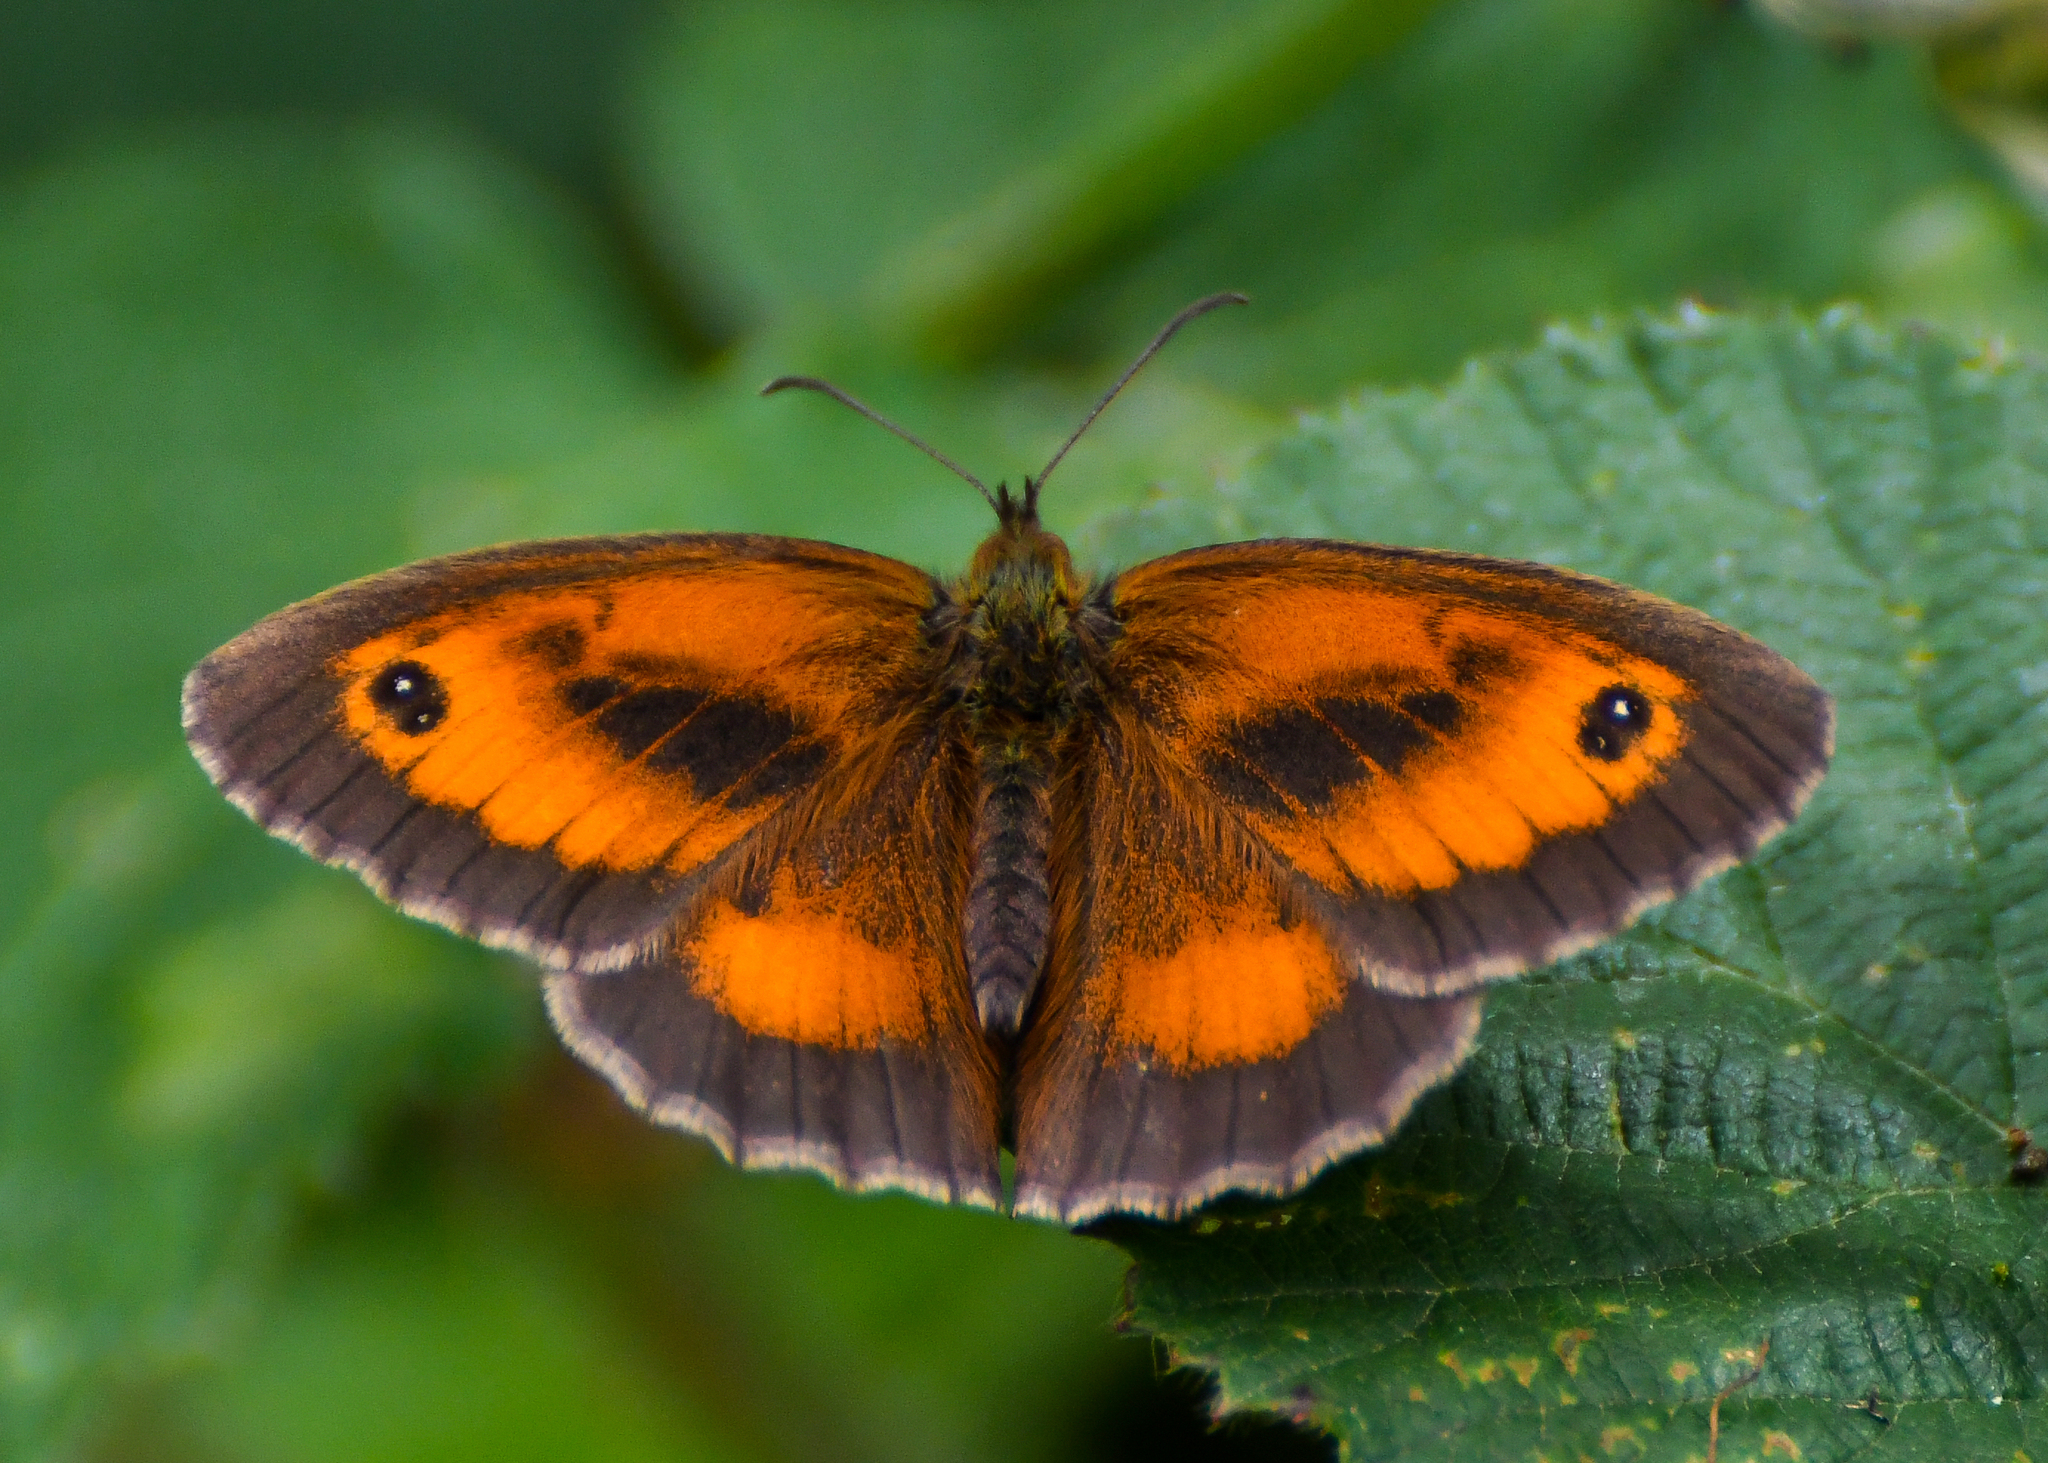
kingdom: Animalia
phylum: Arthropoda
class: Insecta
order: Lepidoptera
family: Nymphalidae
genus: Pyronia
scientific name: Pyronia tithonus
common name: Gatekeeper
